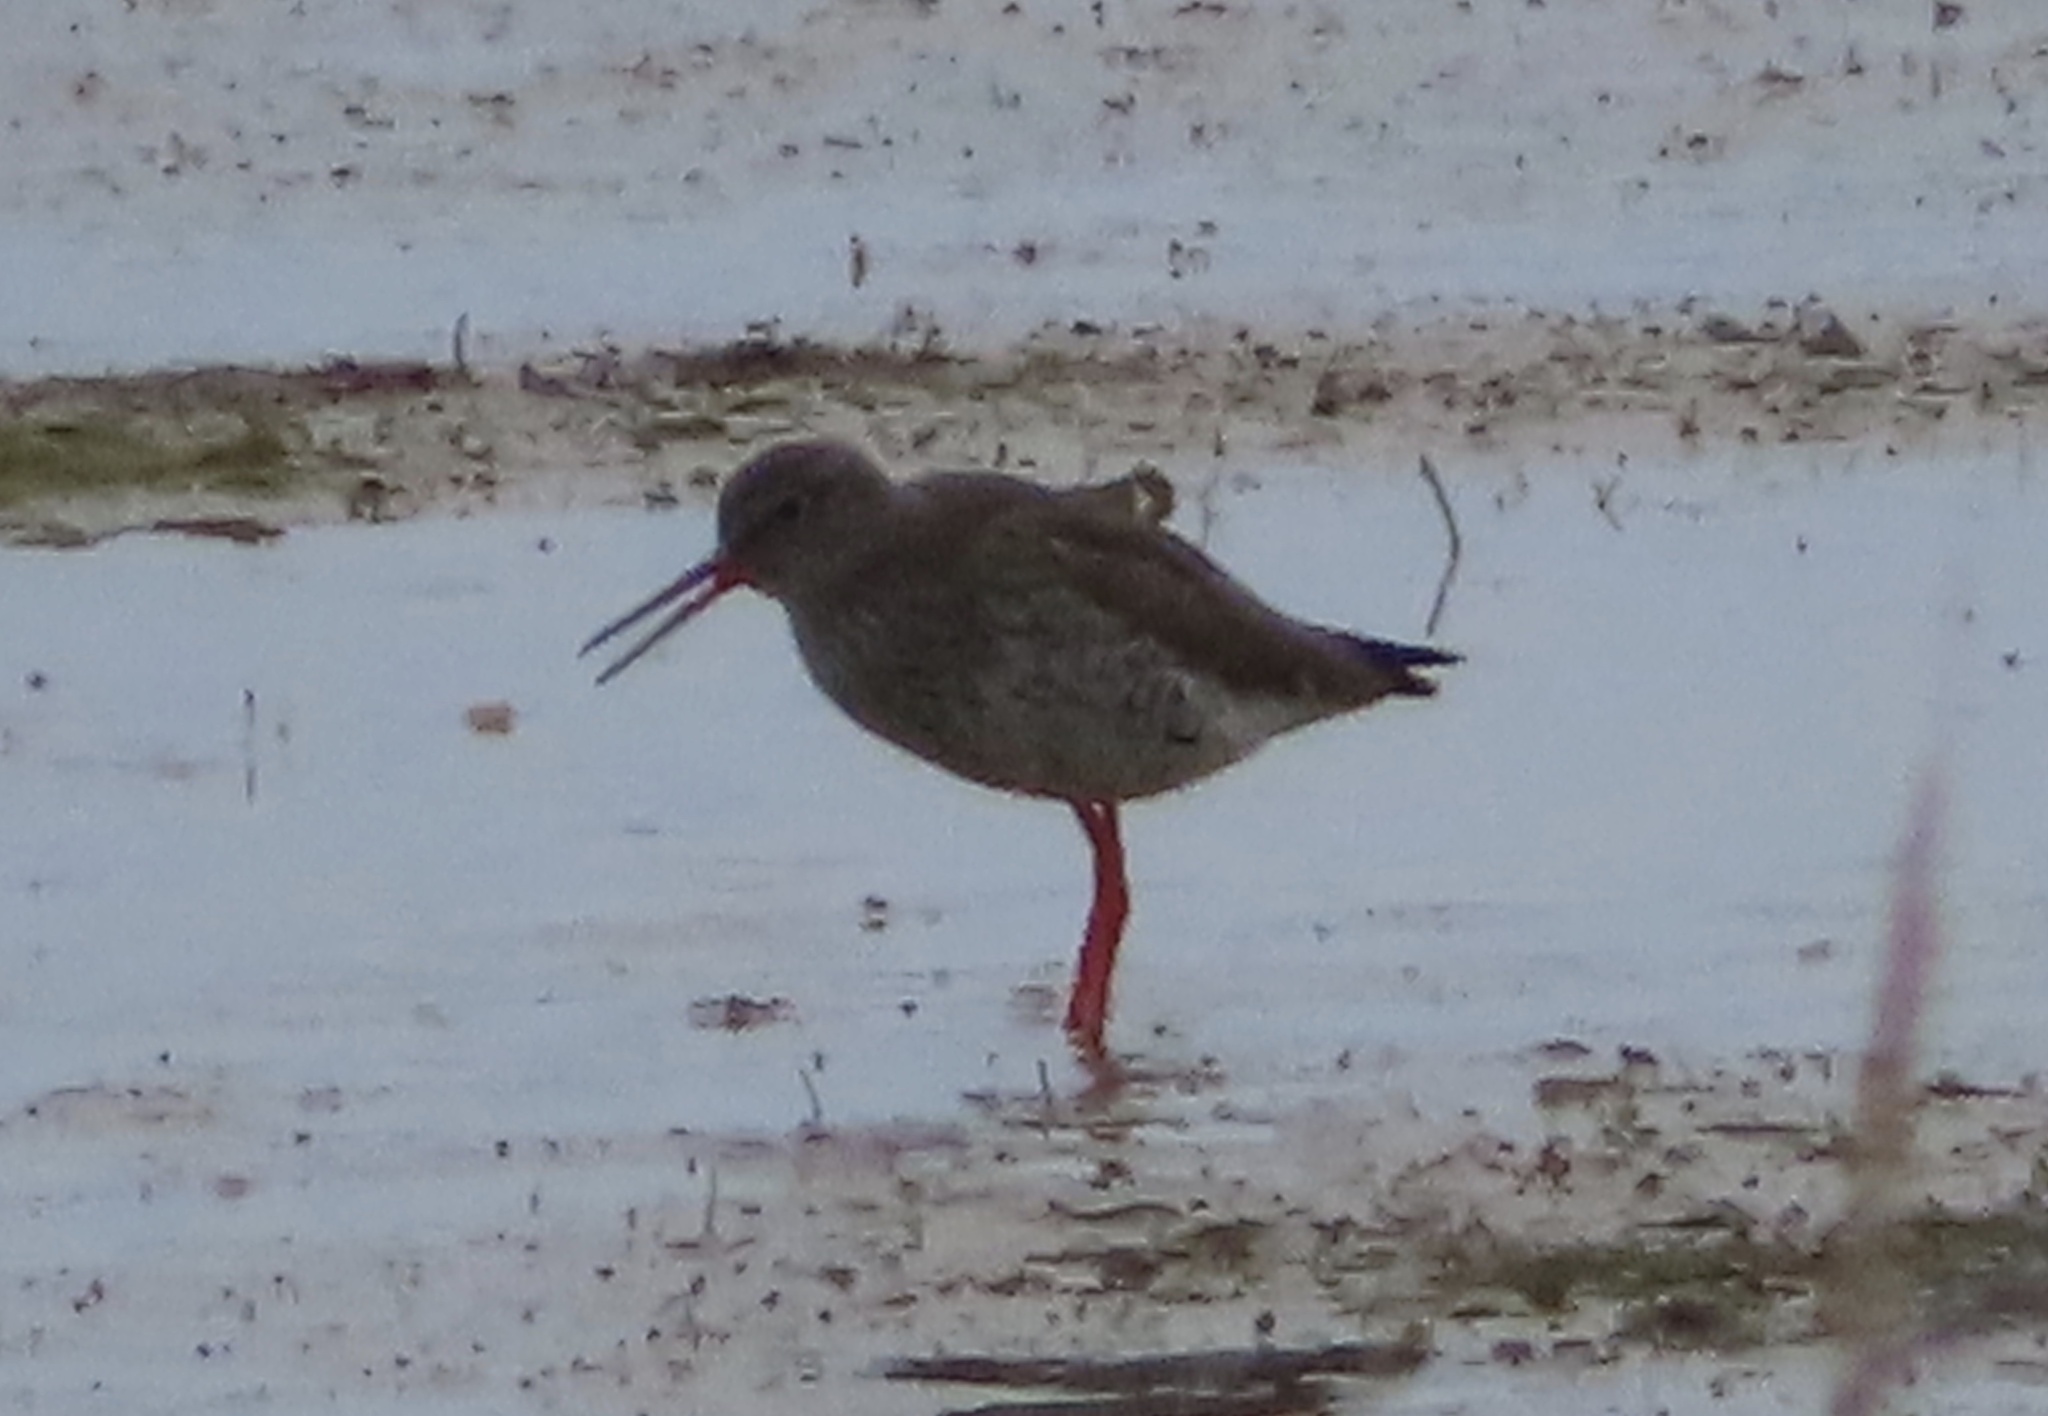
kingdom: Animalia
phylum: Chordata
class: Aves
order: Charadriiformes
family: Scolopacidae
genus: Tringa
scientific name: Tringa totanus
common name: Common redshank
